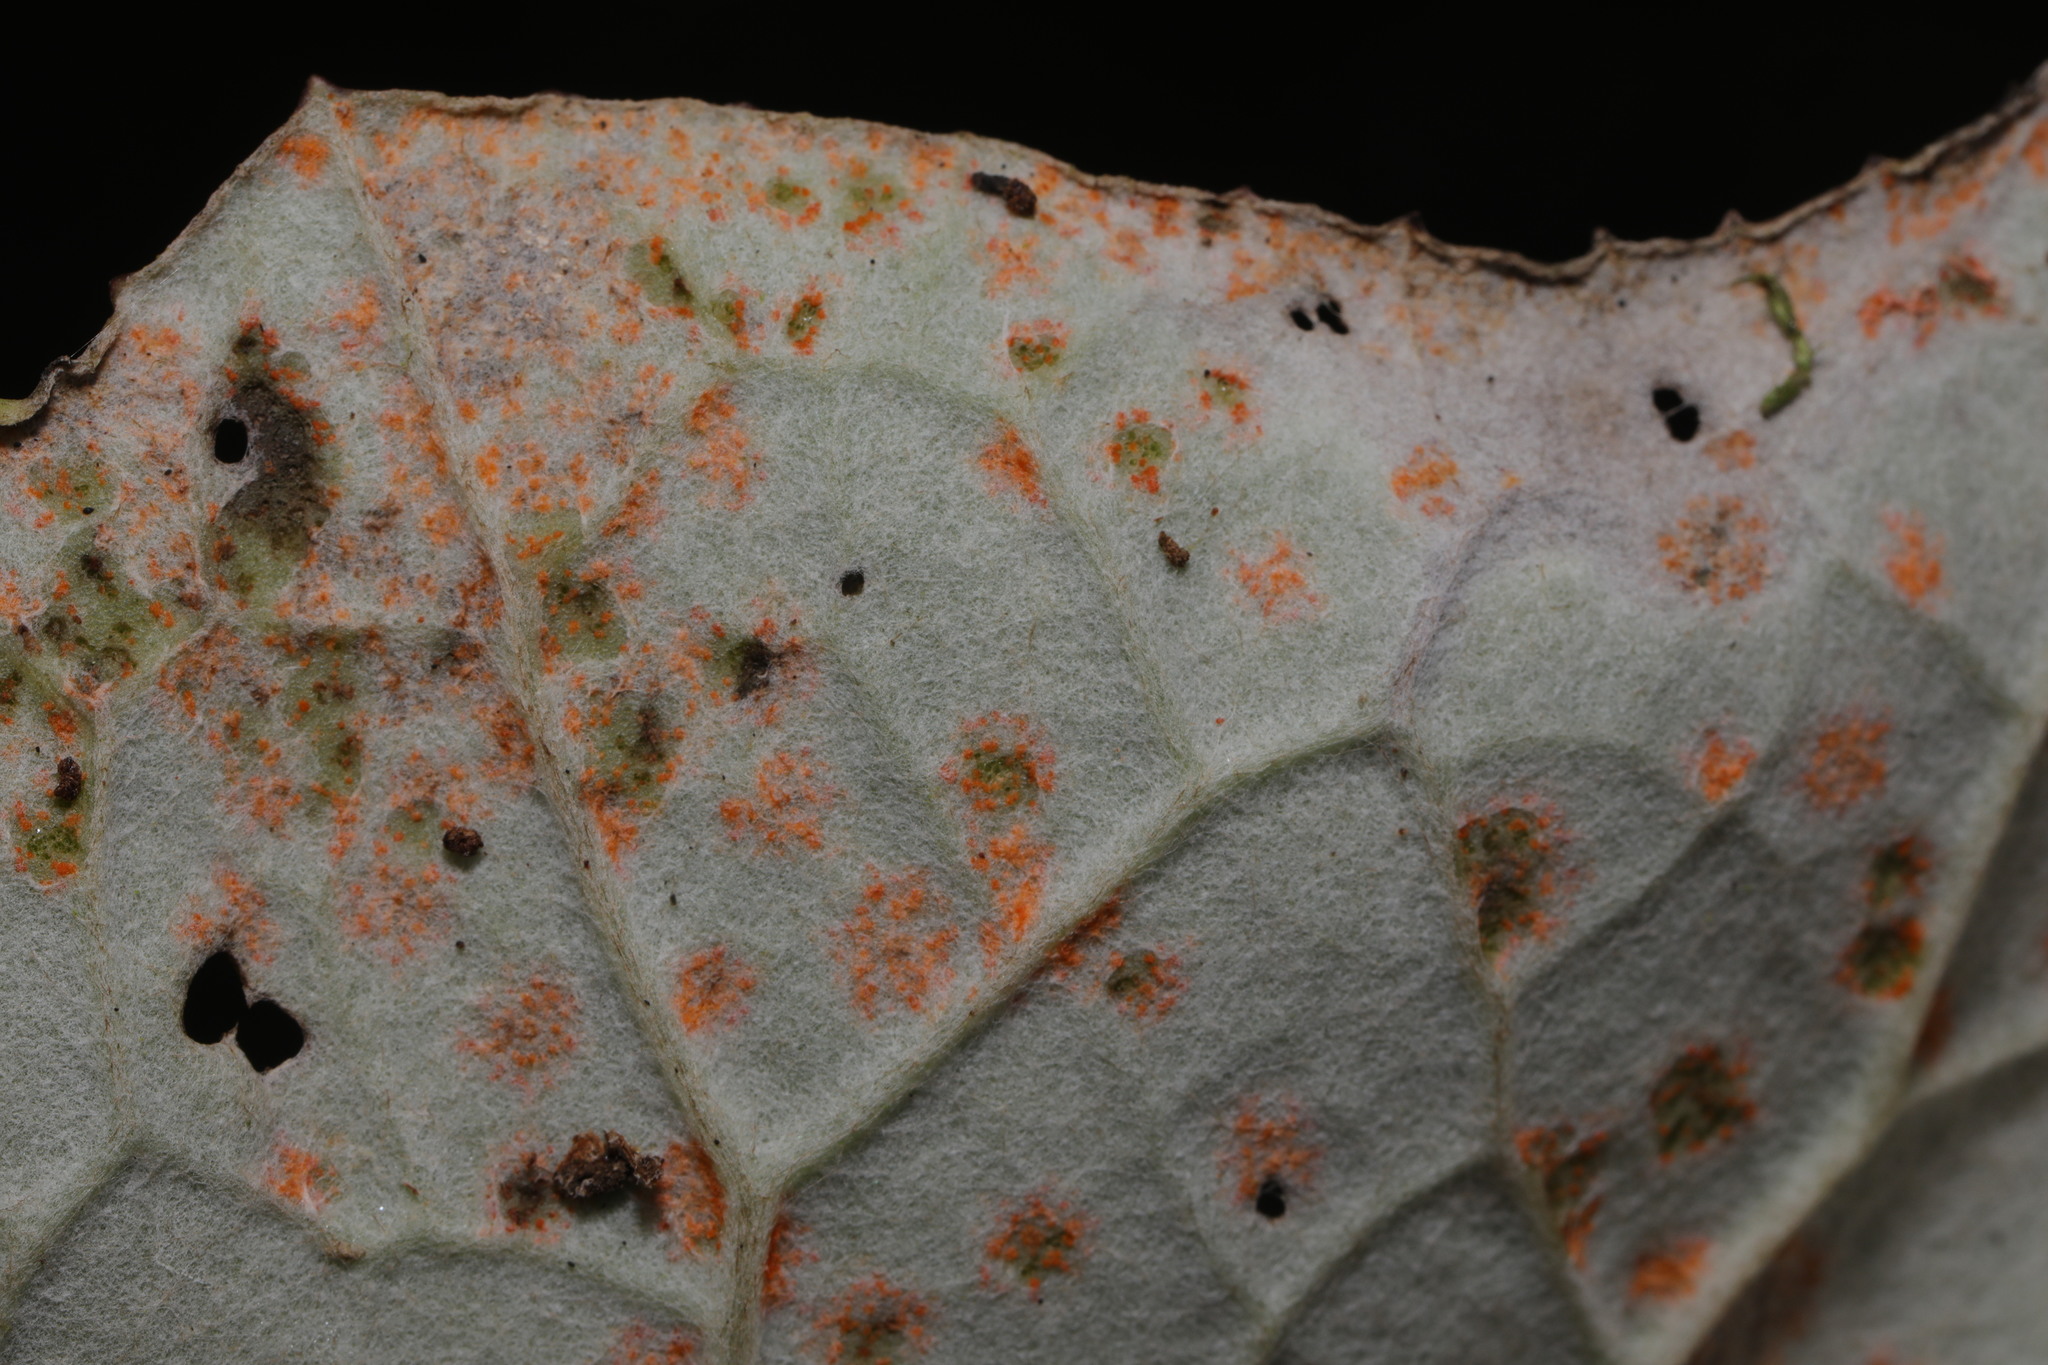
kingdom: Fungi
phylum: Basidiomycota
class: Pucciniomycetes
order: Pucciniales
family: Coleosporiaceae
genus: Coleosporium
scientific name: Coleosporium tussilaginis
